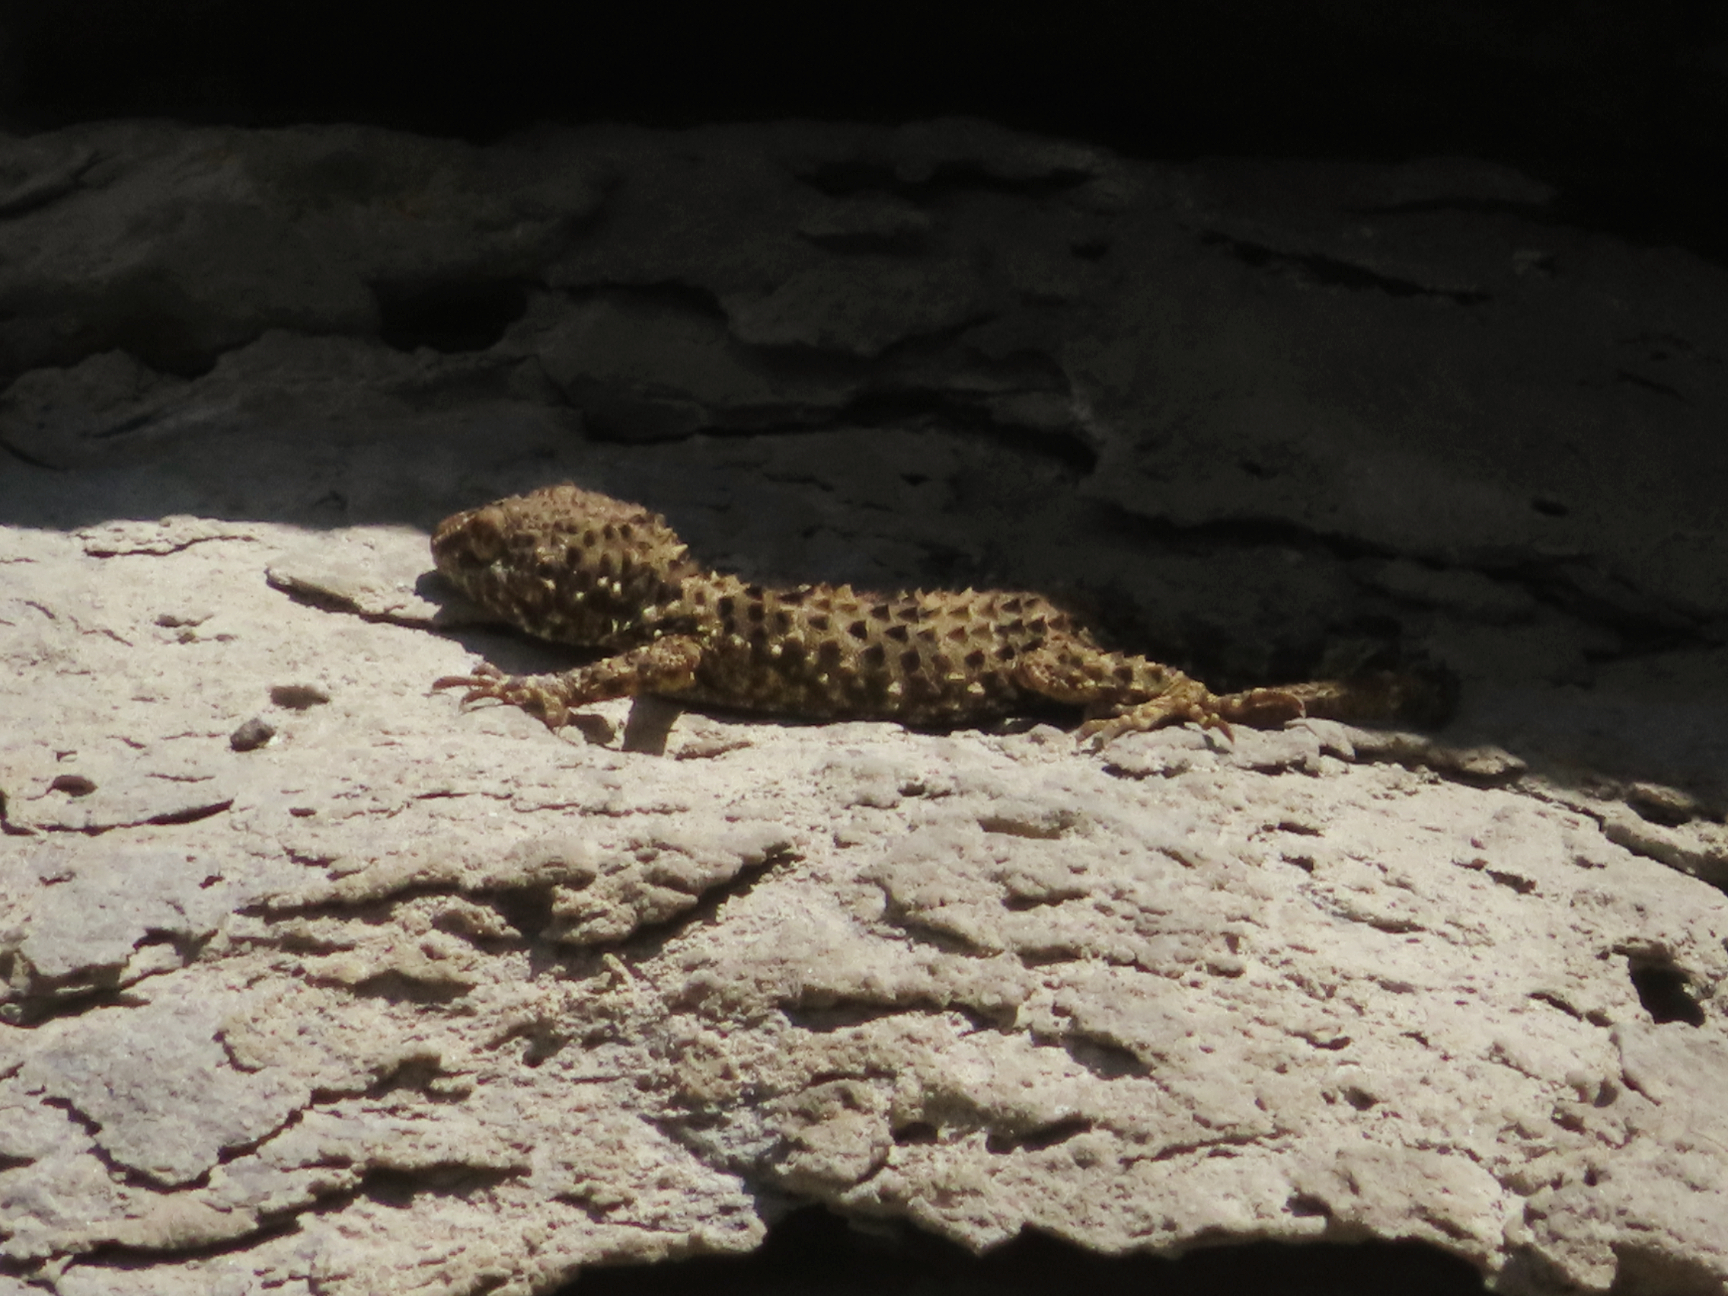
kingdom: Animalia
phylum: Chordata
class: Squamata
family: Gekkonidae
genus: Tenuidactylus
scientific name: Tenuidactylus caspius
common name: Caspian bent-toed gecko
